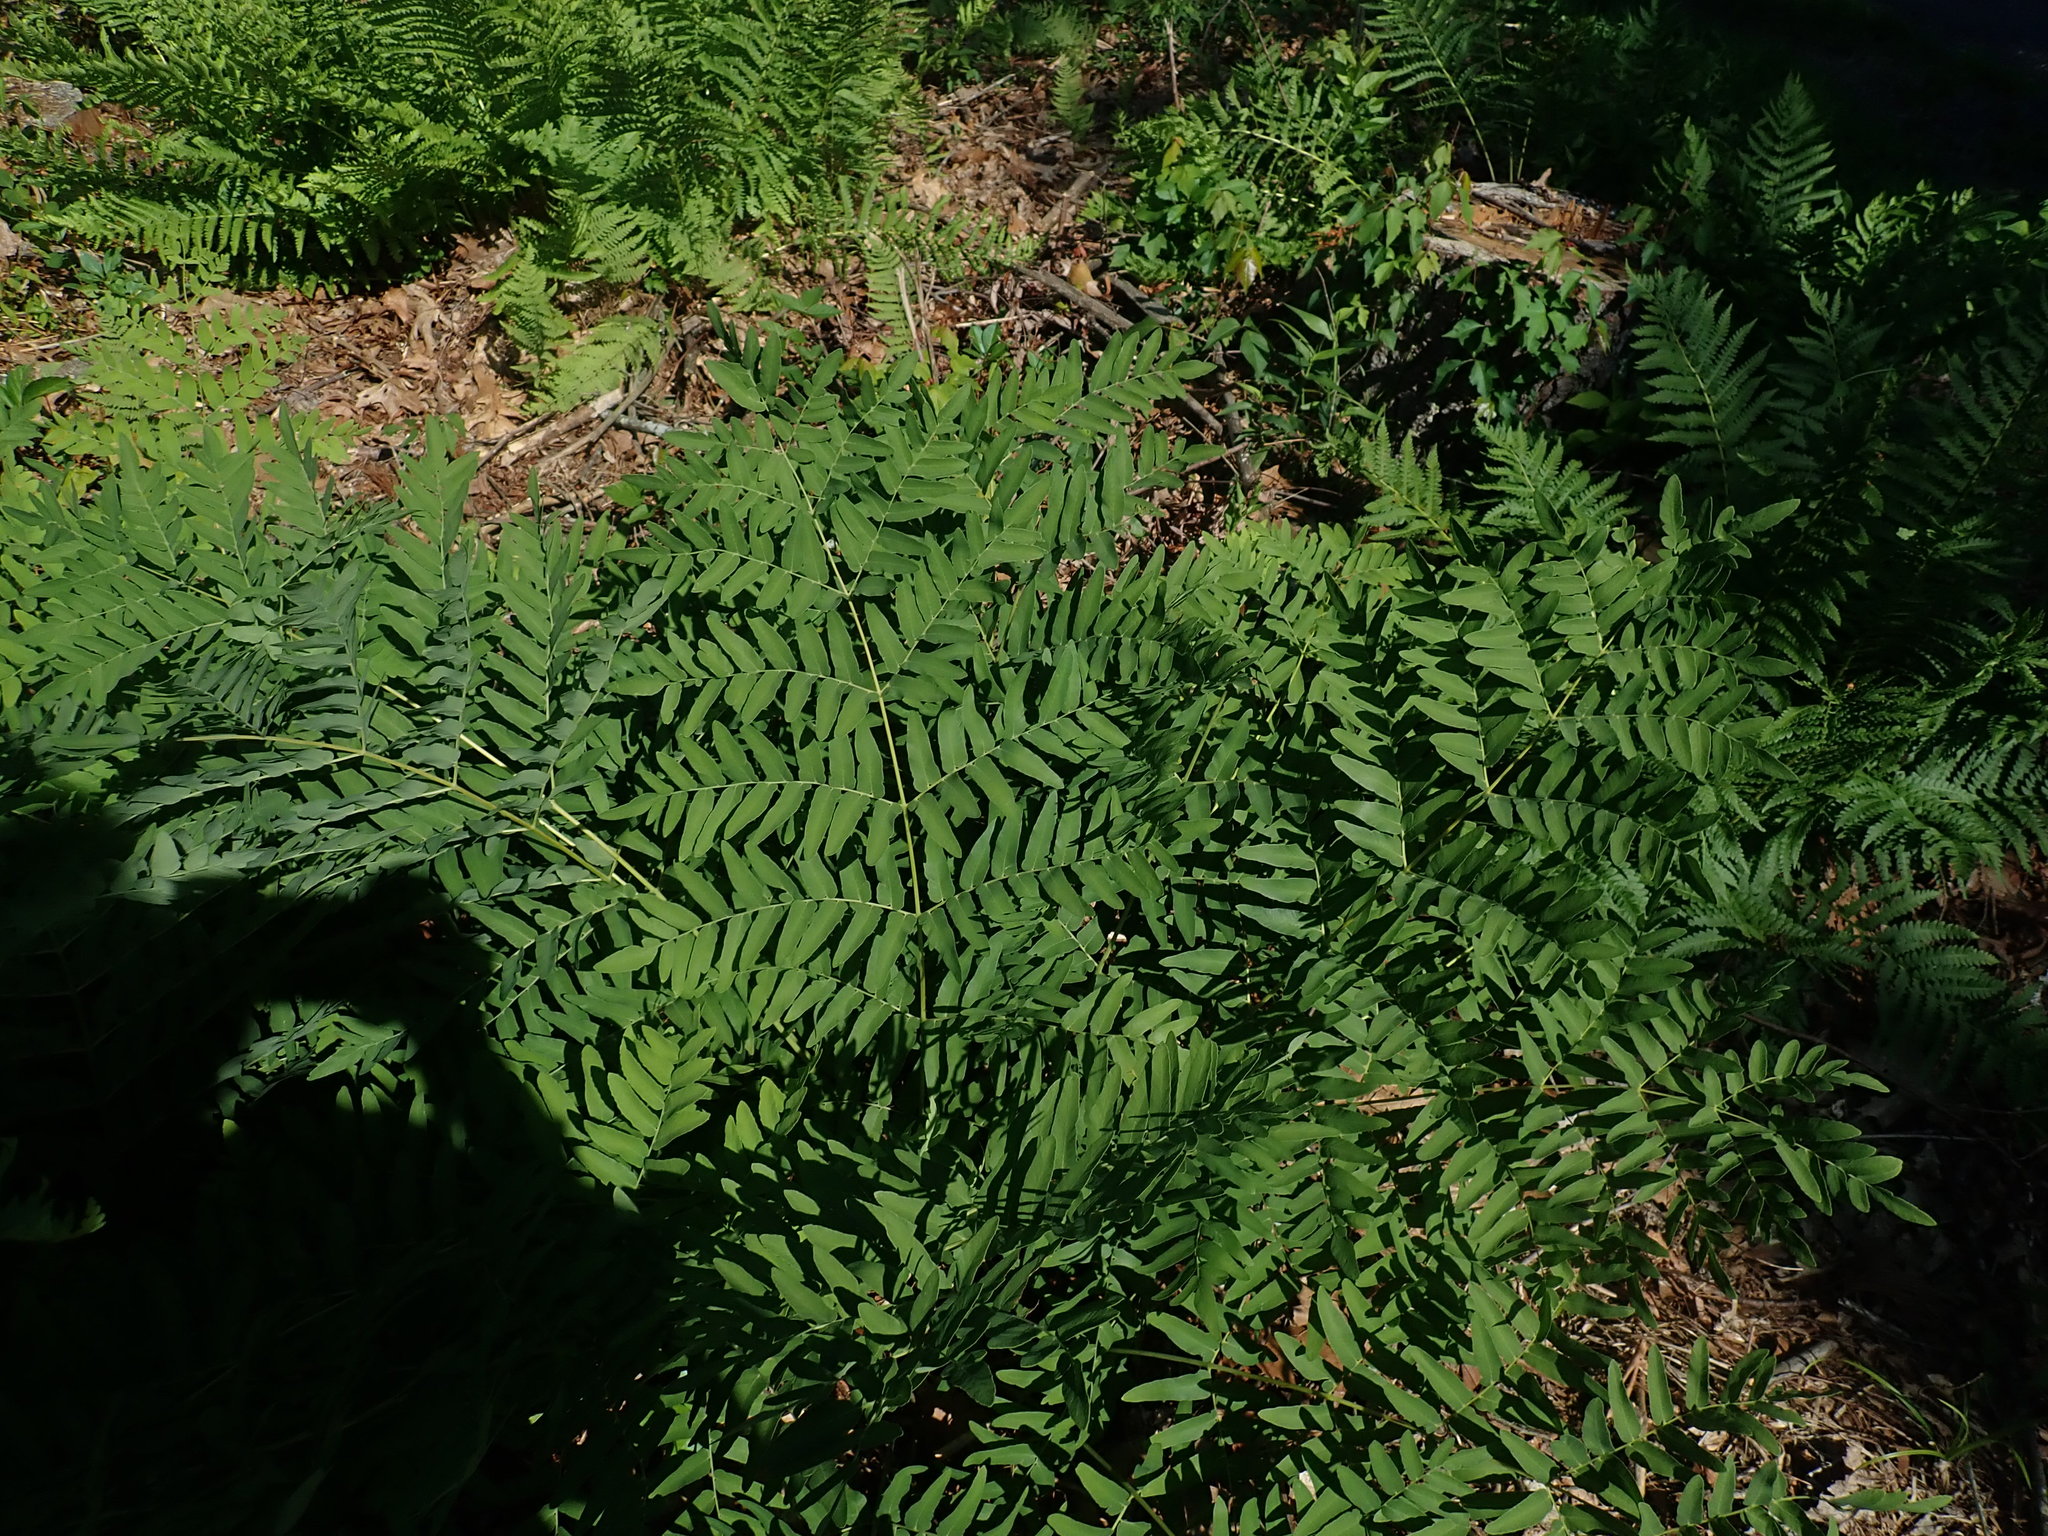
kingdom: Plantae
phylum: Tracheophyta
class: Polypodiopsida
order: Osmundales
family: Osmundaceae
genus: Osmunda
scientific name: Osmunda spectabilis
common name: American royal fern
